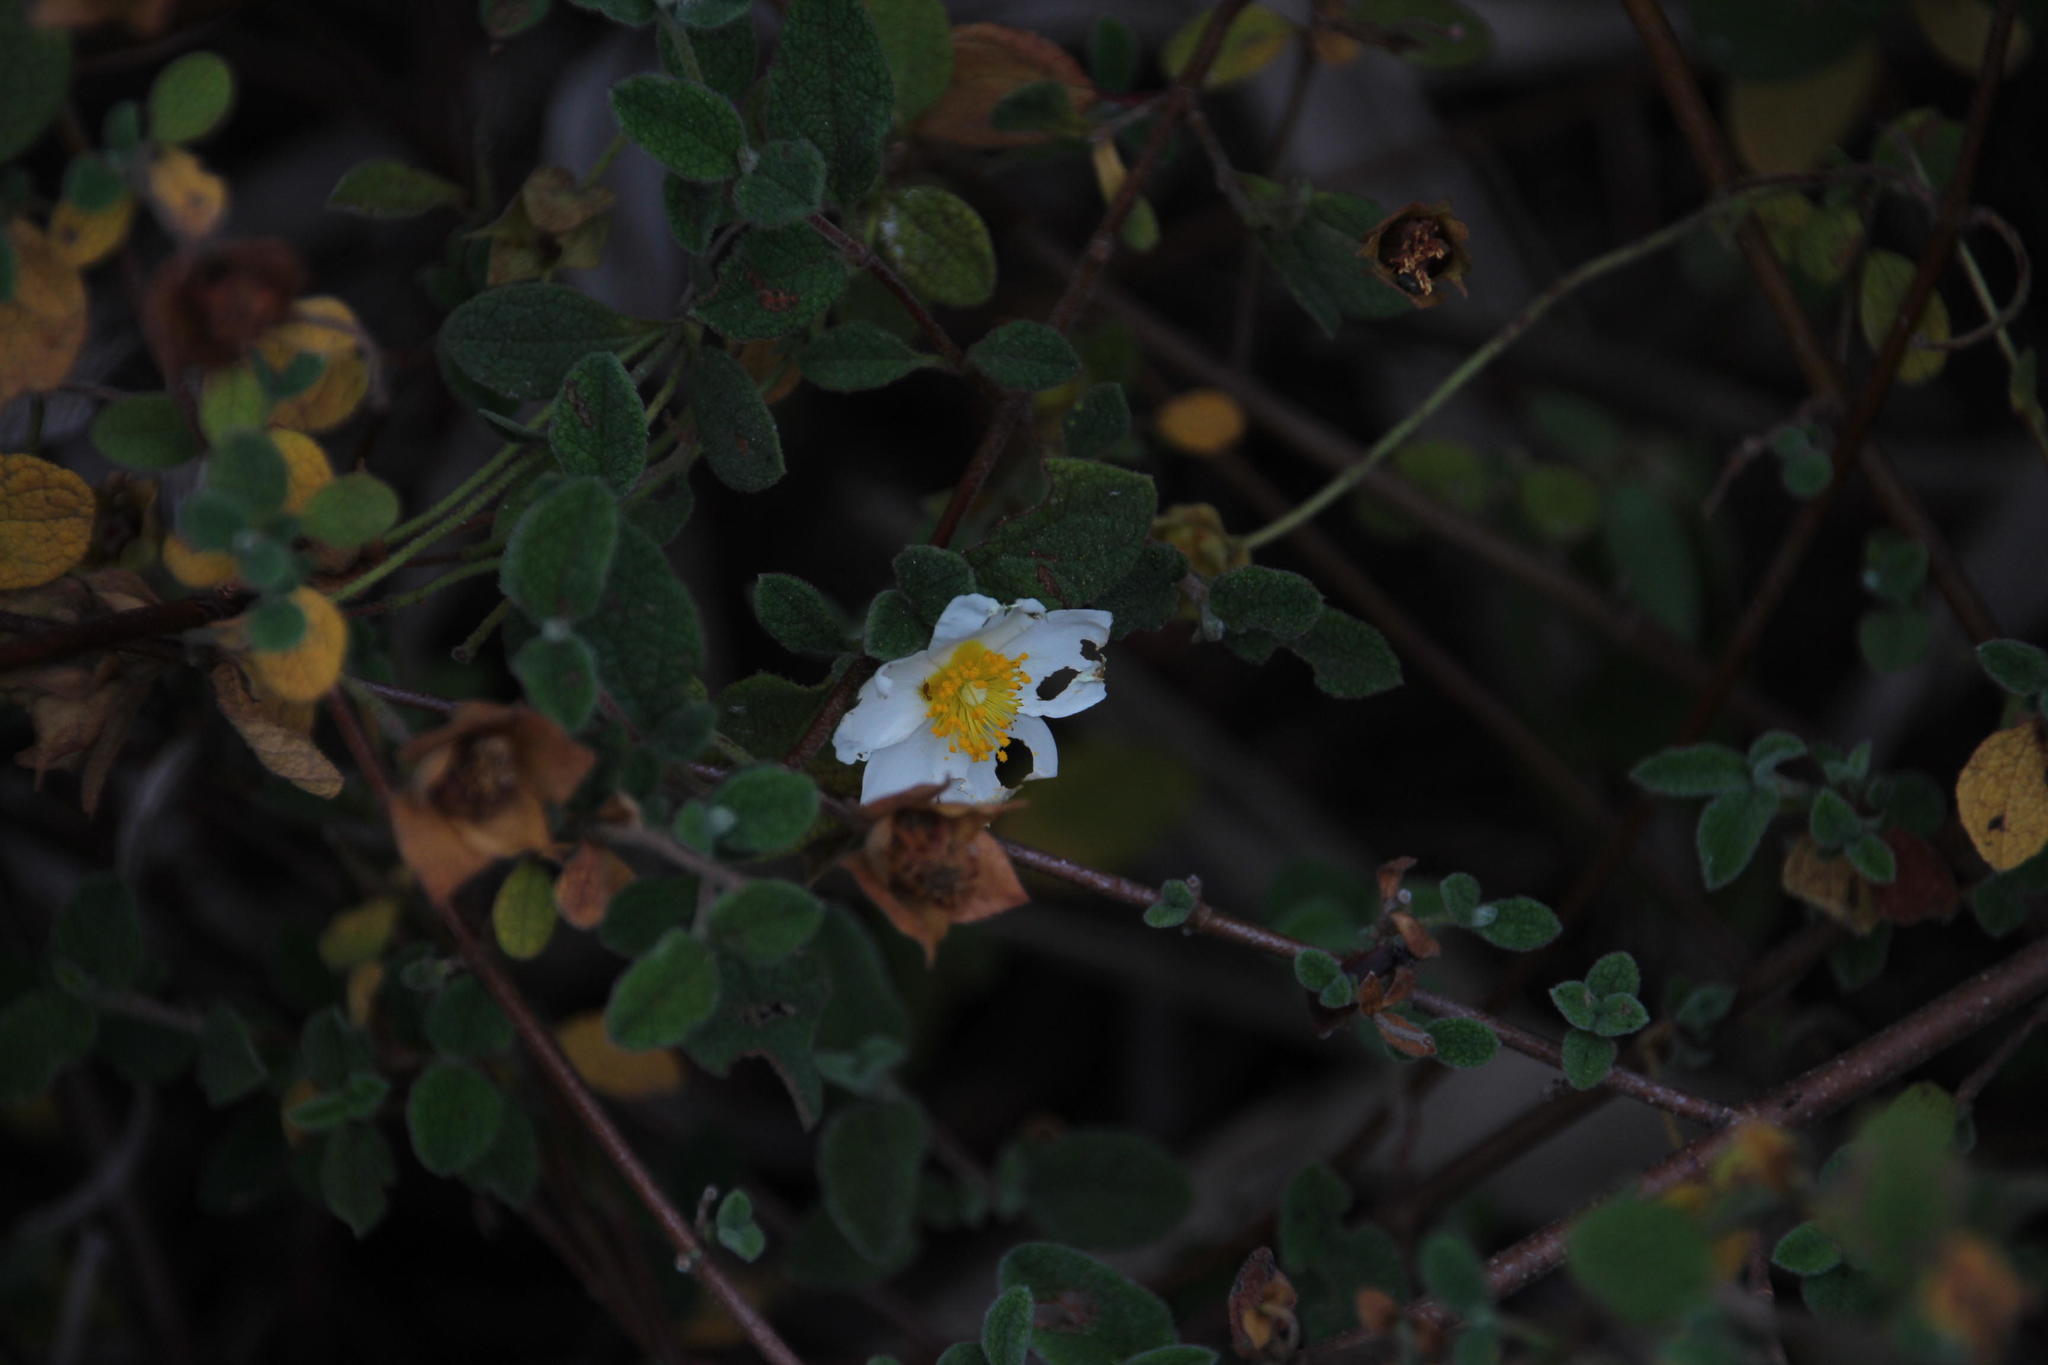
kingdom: Plantae
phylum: Tracheophyta
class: Magnoliopsida
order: Malvales
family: Cistaceae
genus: Cistus
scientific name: Cistus salviifolius
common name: Salvia cistus
